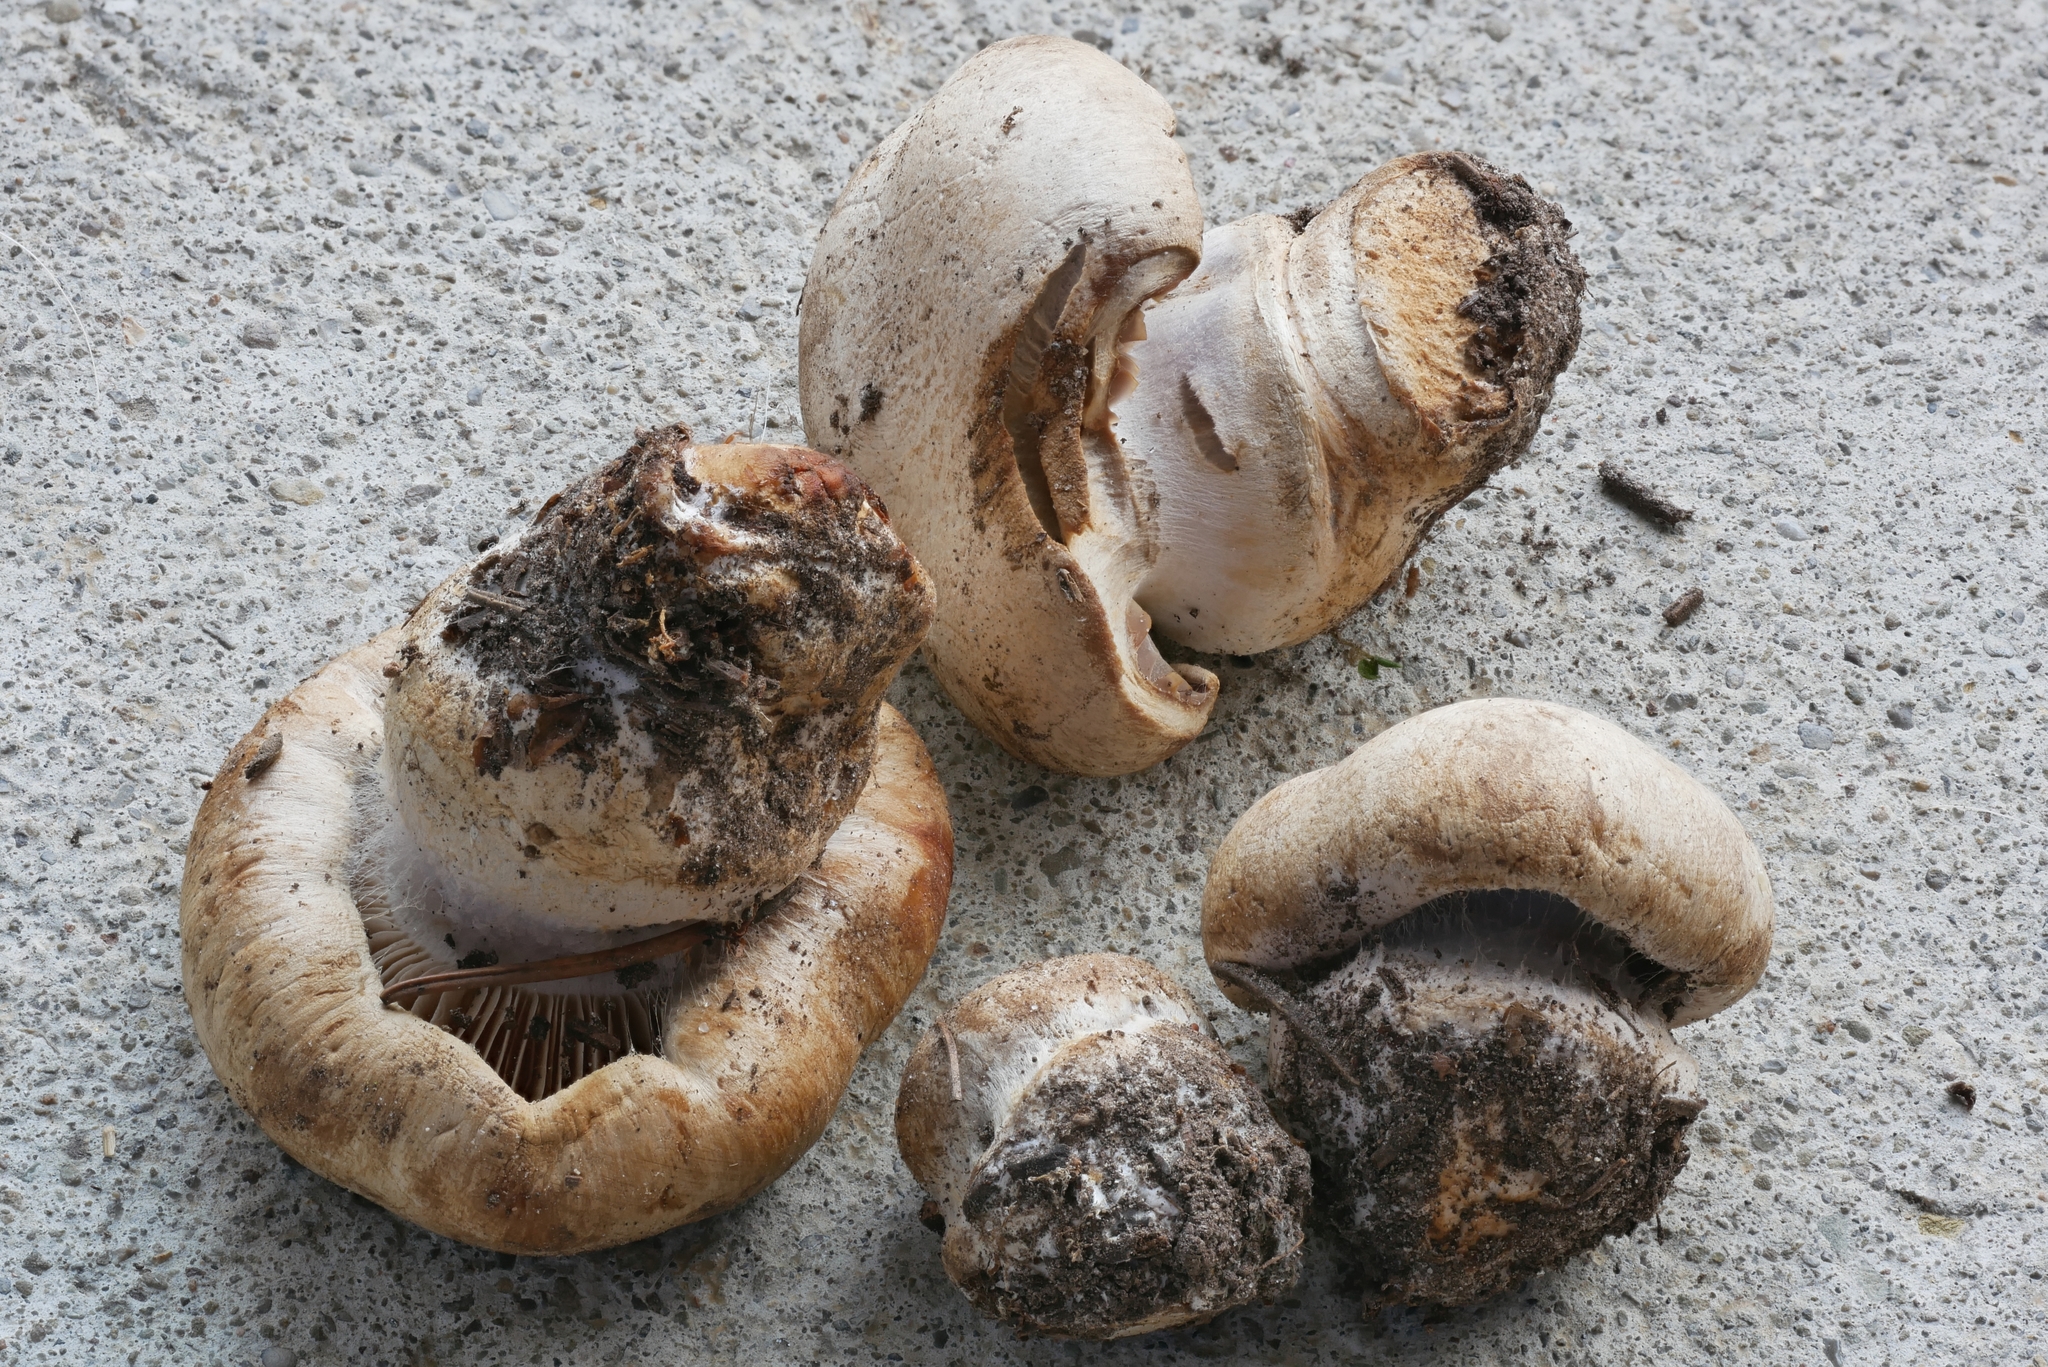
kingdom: Fungi
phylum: Basidiomycota
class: Agaricomycetes
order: Agaricales
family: Cortinariaceae
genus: Cortinarius
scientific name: Cortinarius caesiocanescens
